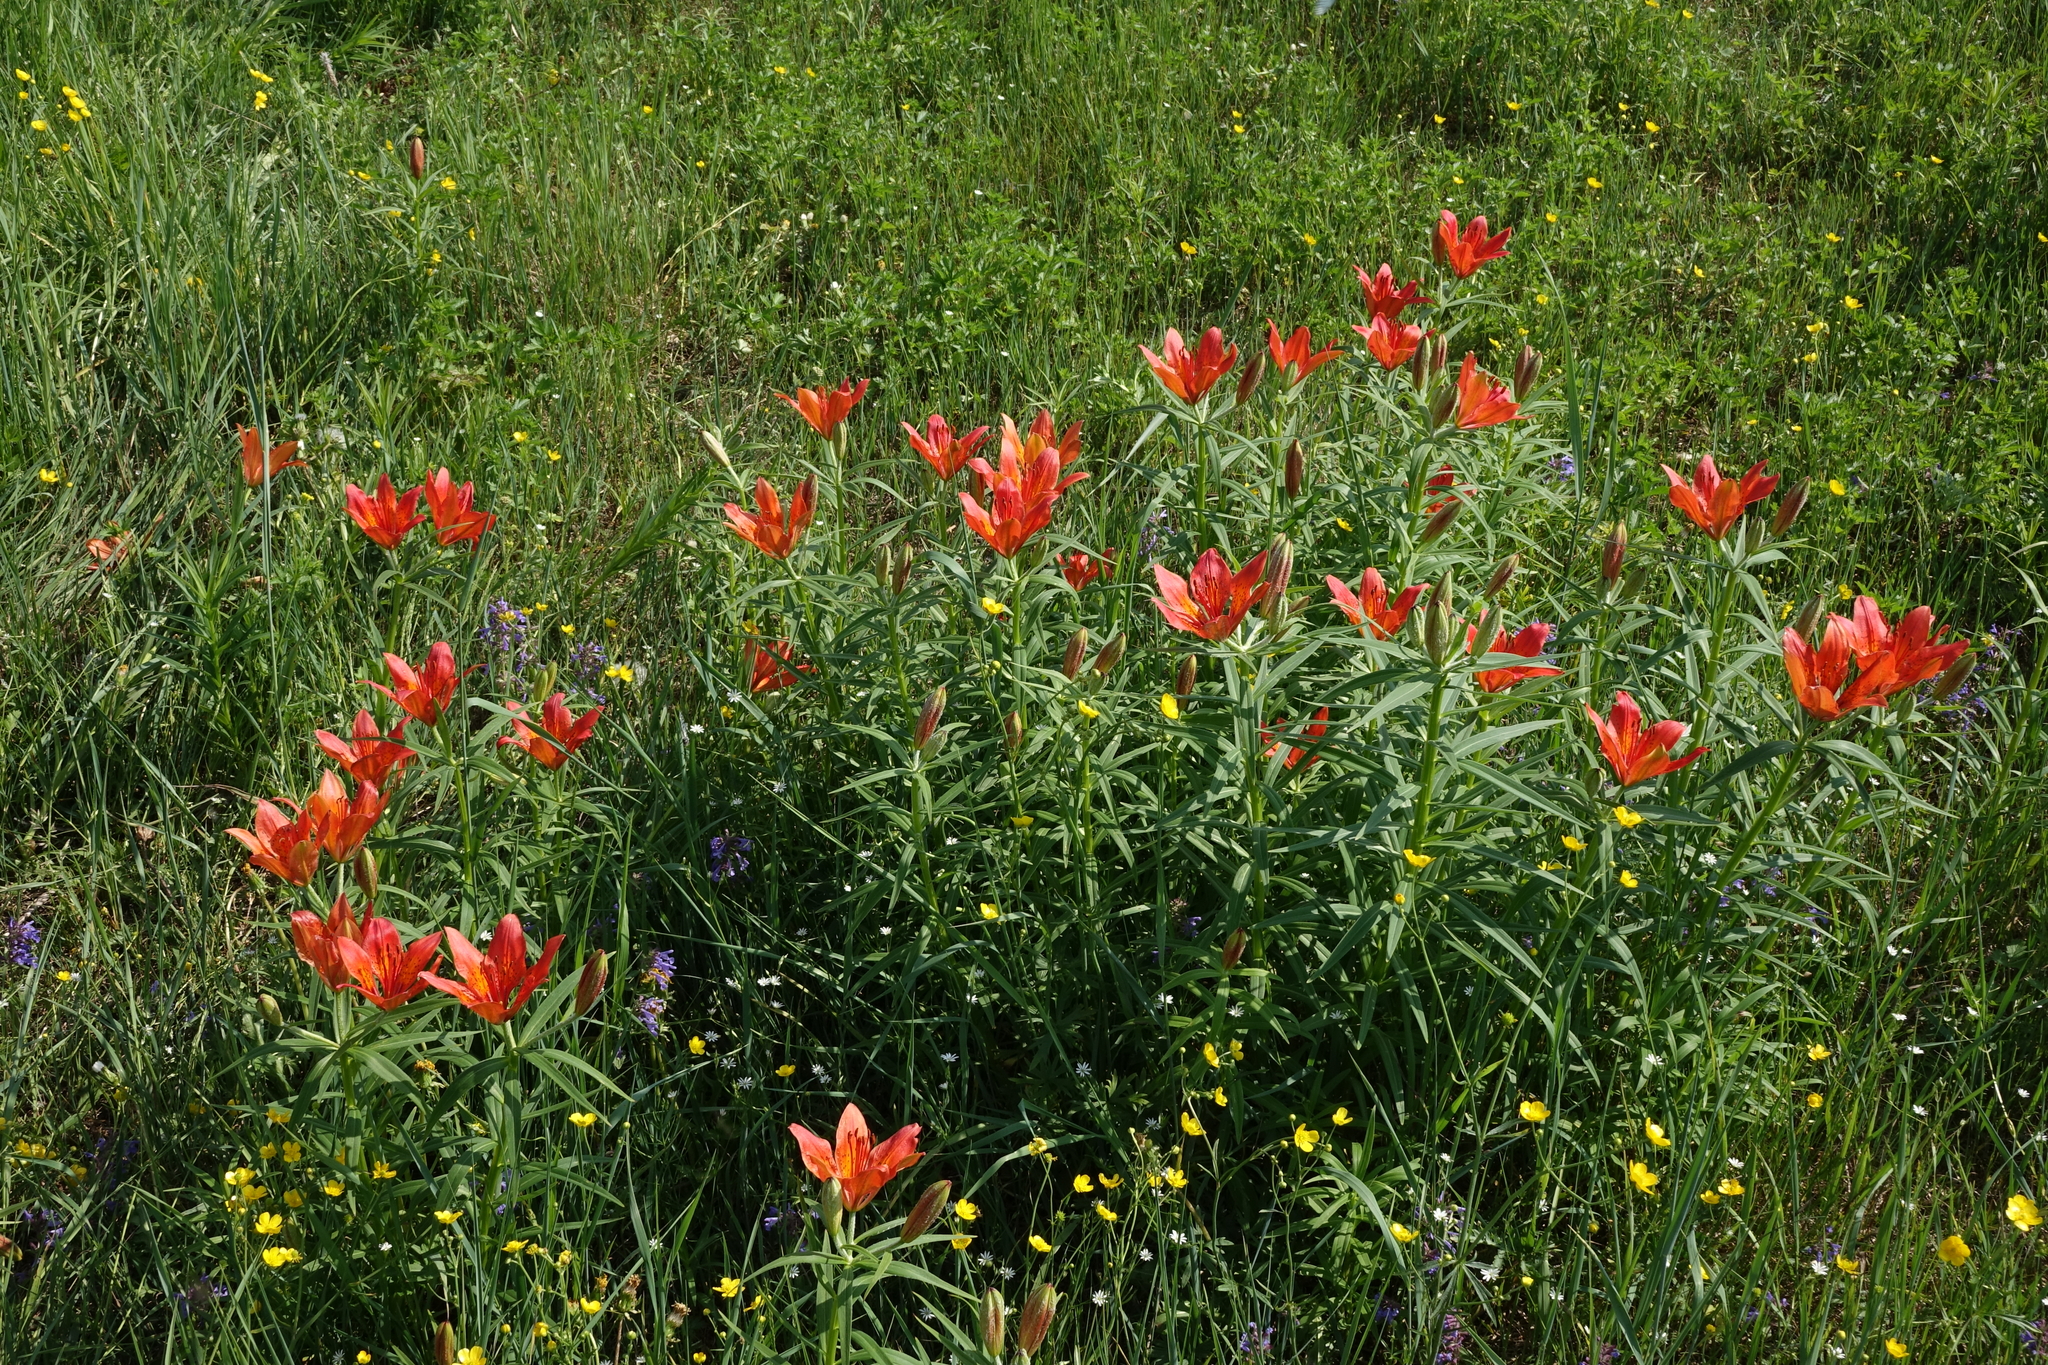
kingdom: Plantae
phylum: Tracheophyta
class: Liliopsida
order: Liliales
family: Liliaceae
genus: Lilium
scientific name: Lilium pensylvanicum
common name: Candlestick lily
